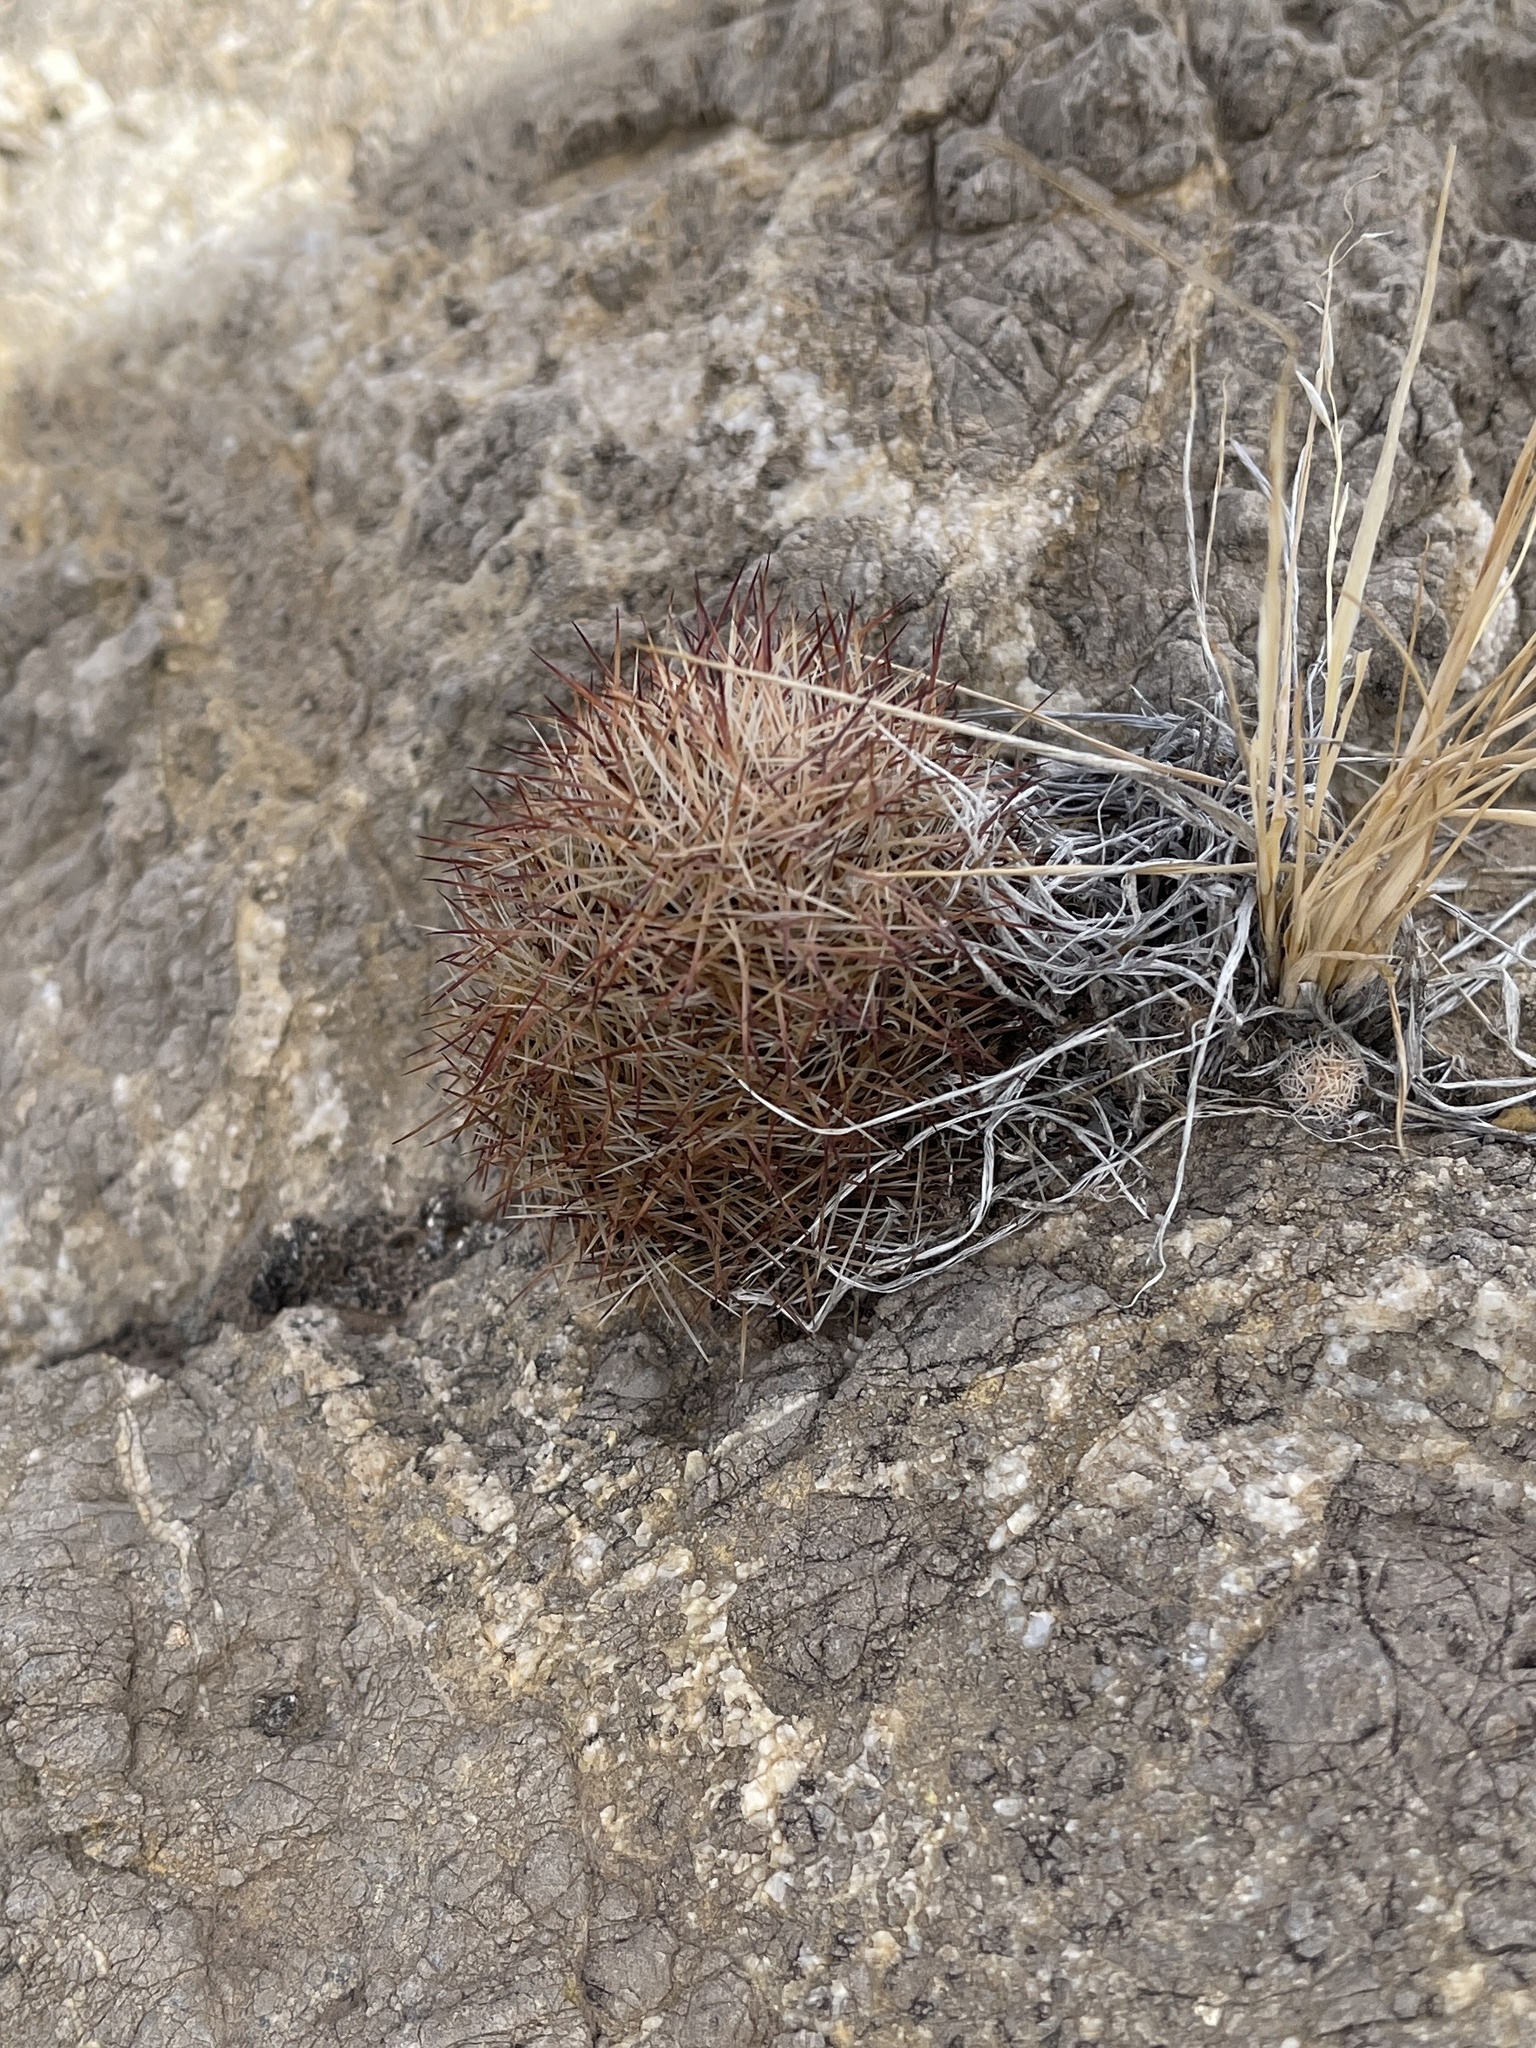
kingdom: Plantae
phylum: Tracheophyta
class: Magnoliopsida
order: Caryophyllales
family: Cactaceae
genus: Pelecyphora
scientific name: Pelecyphora vivipara
